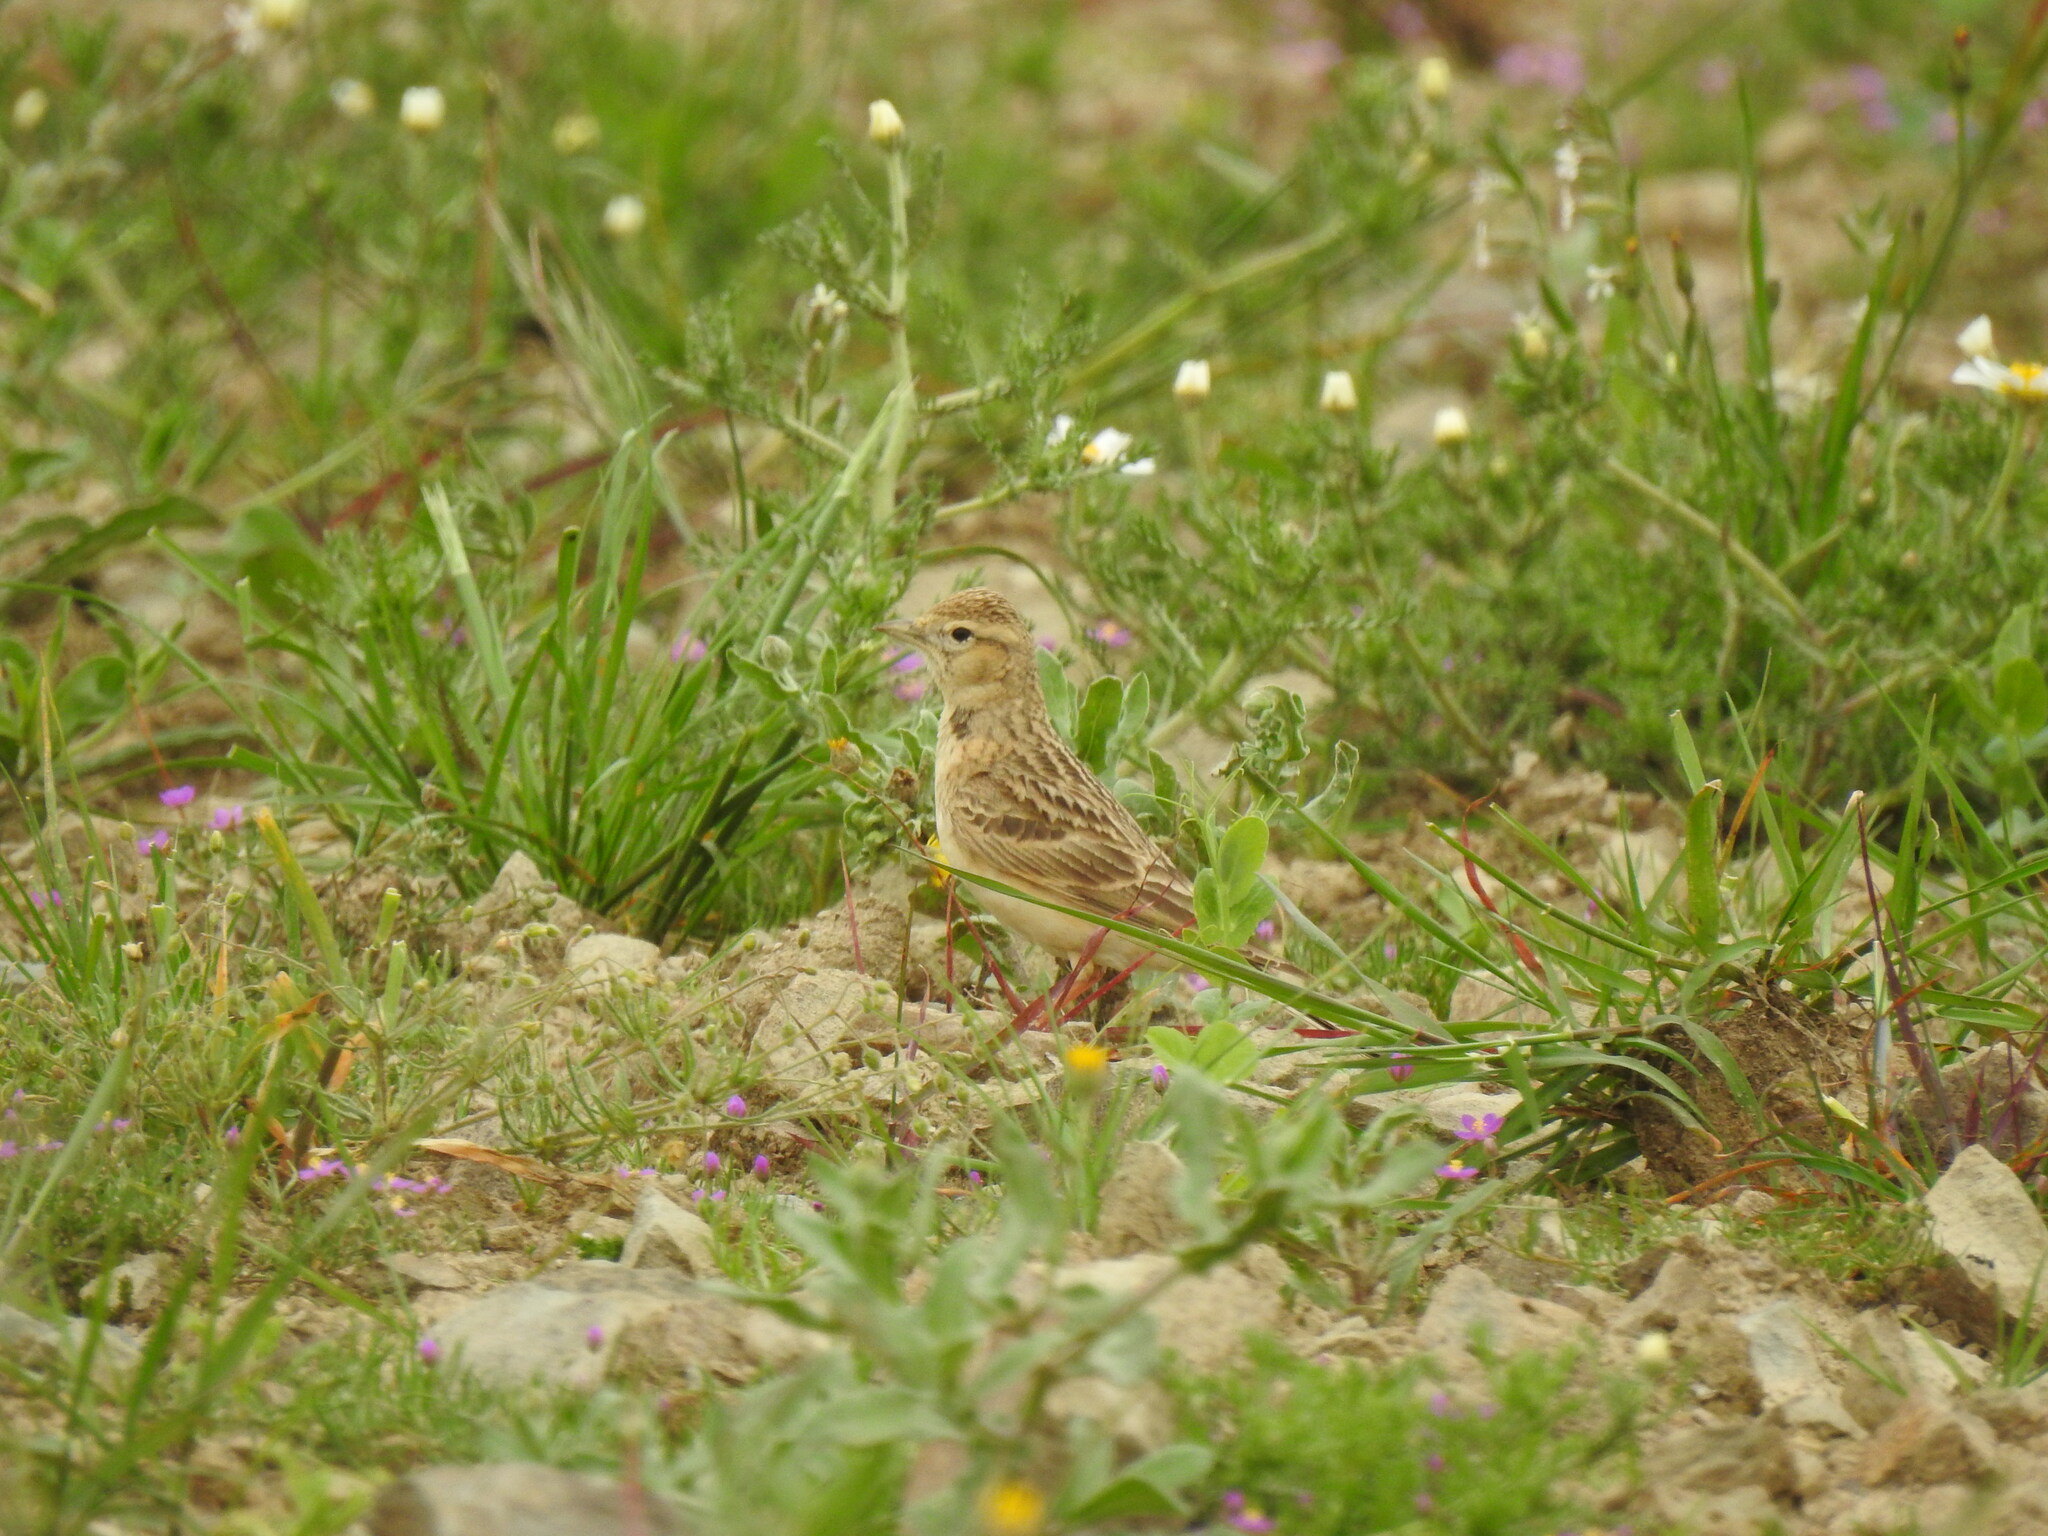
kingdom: Animalia
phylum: Chordata
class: Aves
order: Passeriformes
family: Alaudidae
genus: Calandrella
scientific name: Calandrella brachydactyla
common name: Greater short-toed lark
